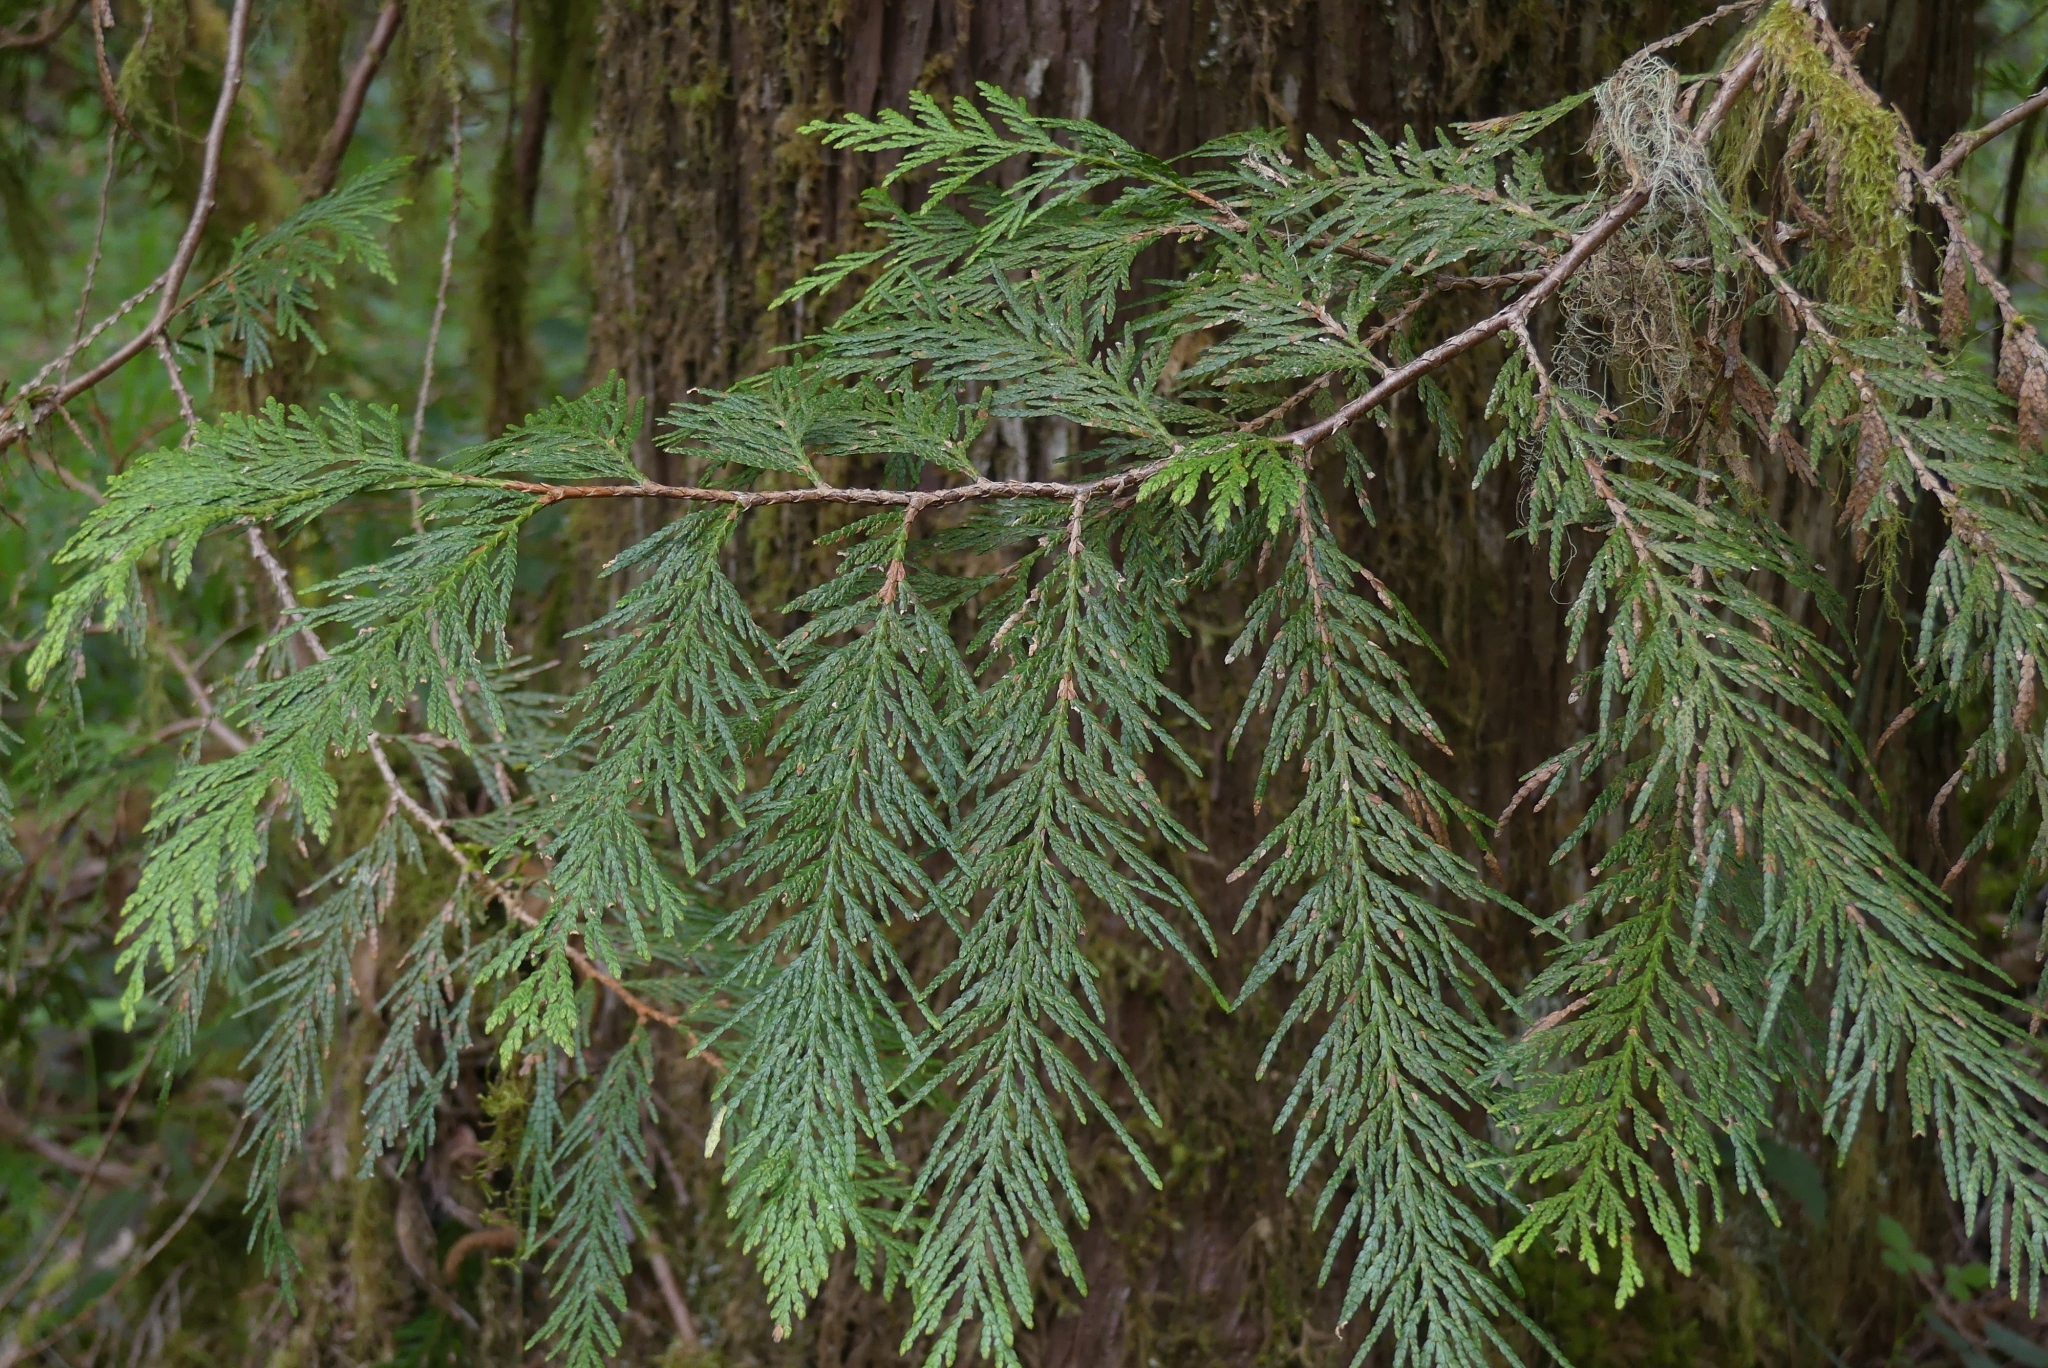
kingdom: Plantae
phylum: Tracheophyta
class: Pinopsida
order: Pinales
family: Cupressaceae
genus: Thuja
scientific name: Thuja plicata
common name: Western red-cedar
